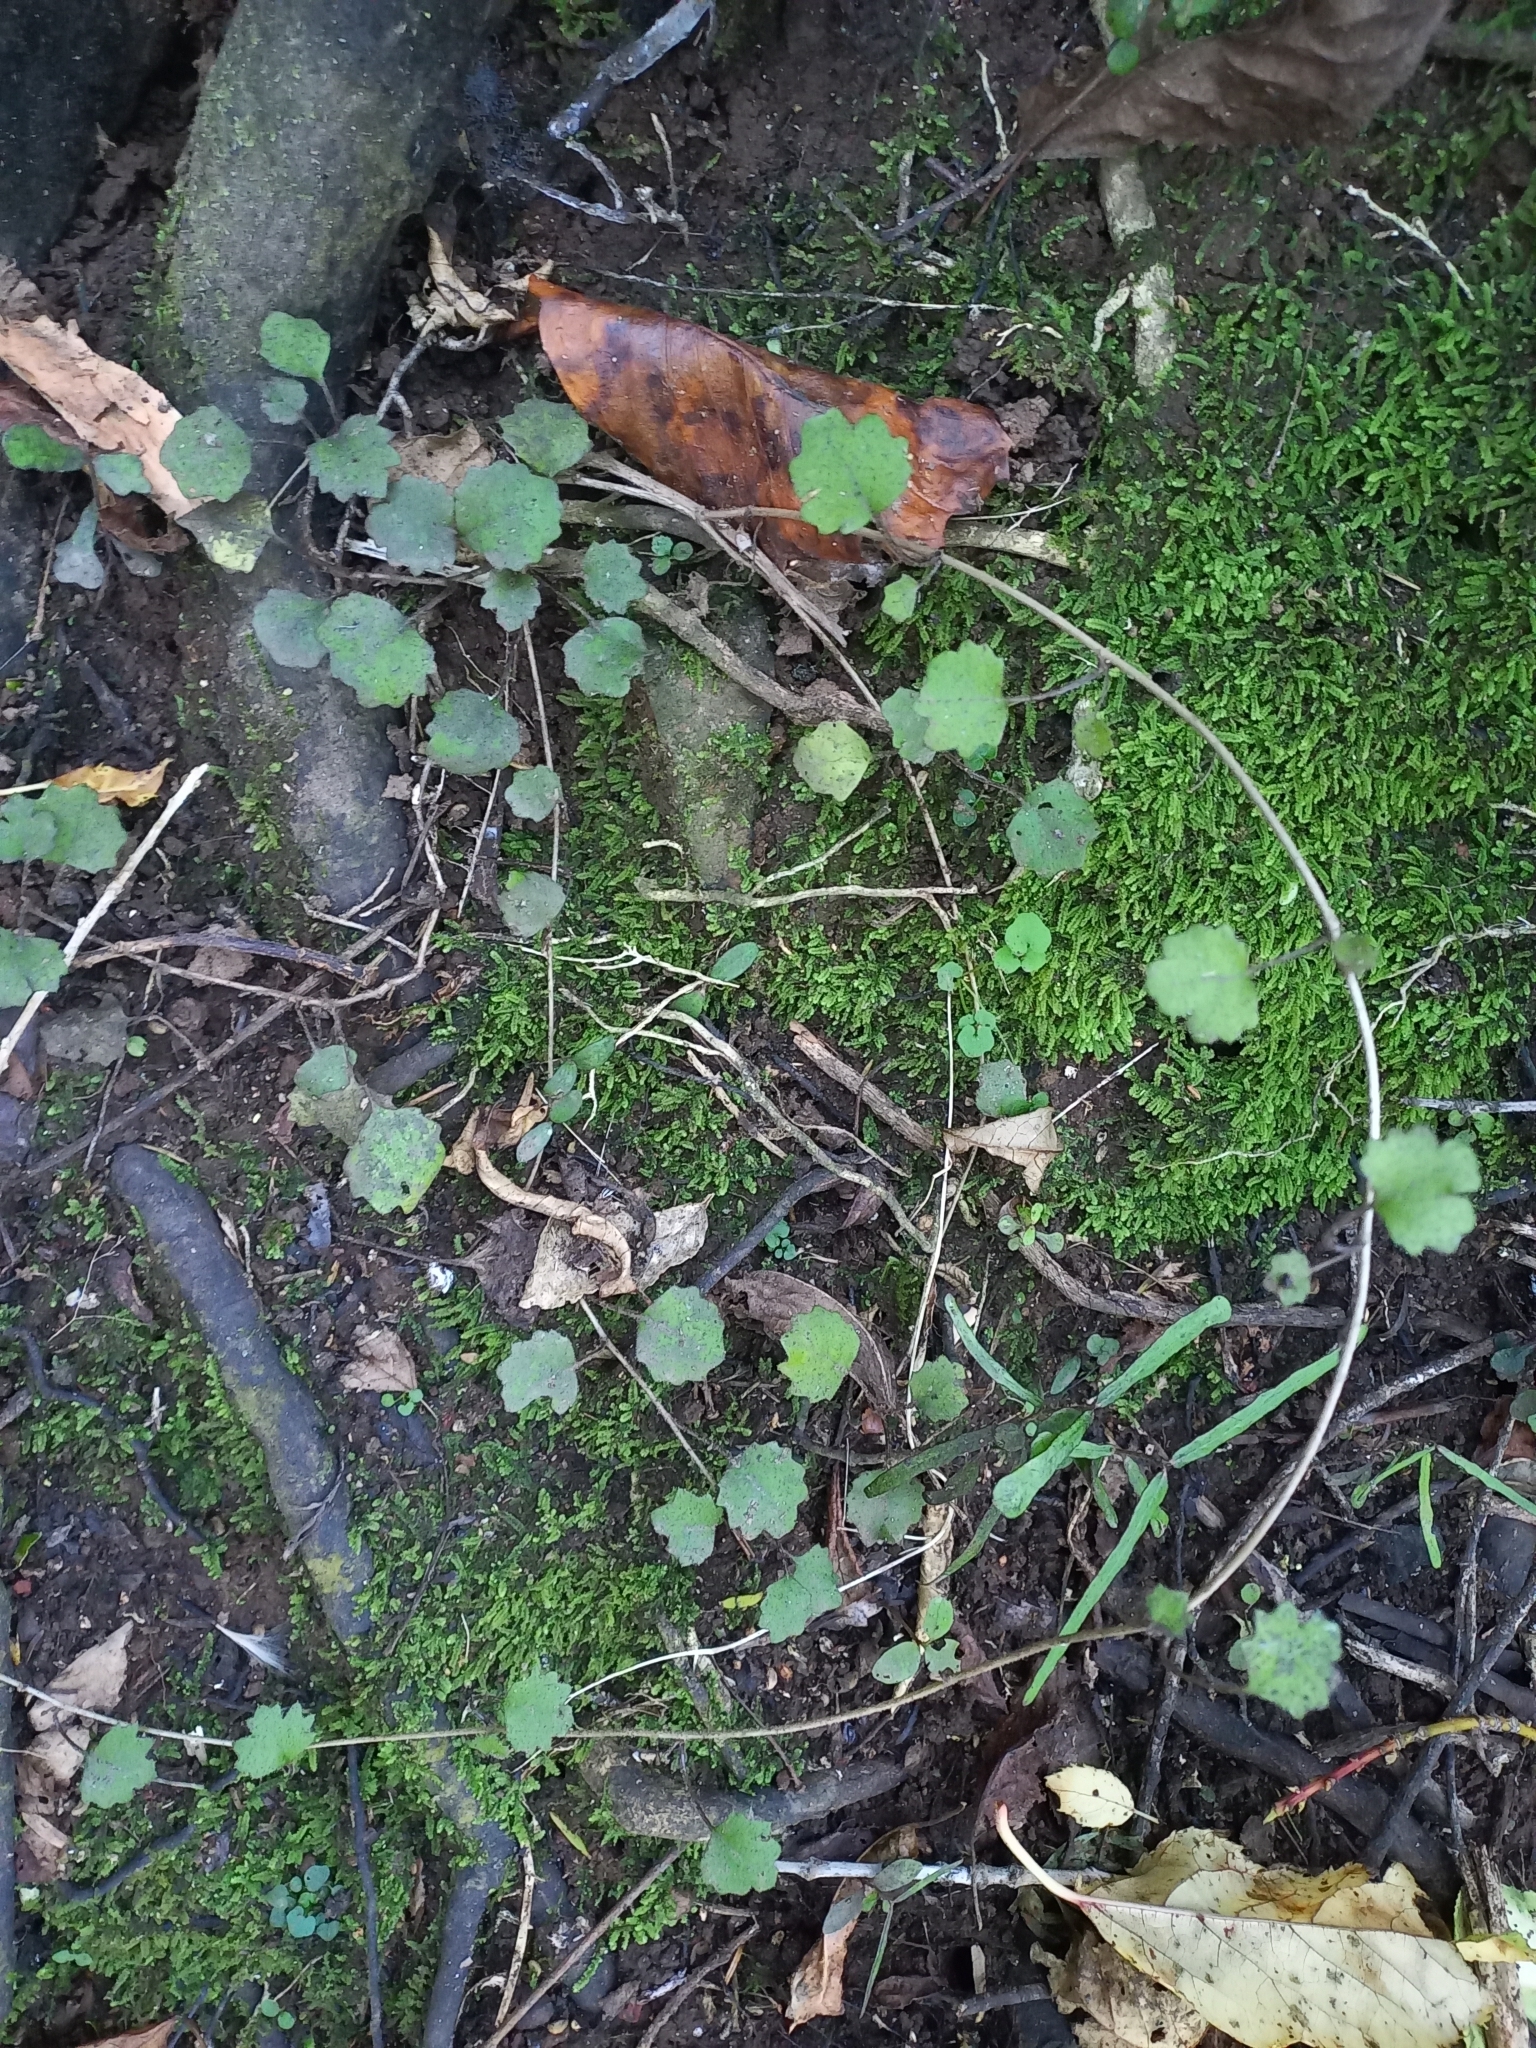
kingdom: Plantae
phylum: Tracheophyta
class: Magnoliopsida
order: Asterales
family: Asteraceae
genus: Brachyglottis
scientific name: Brachyglottis sciadophila
